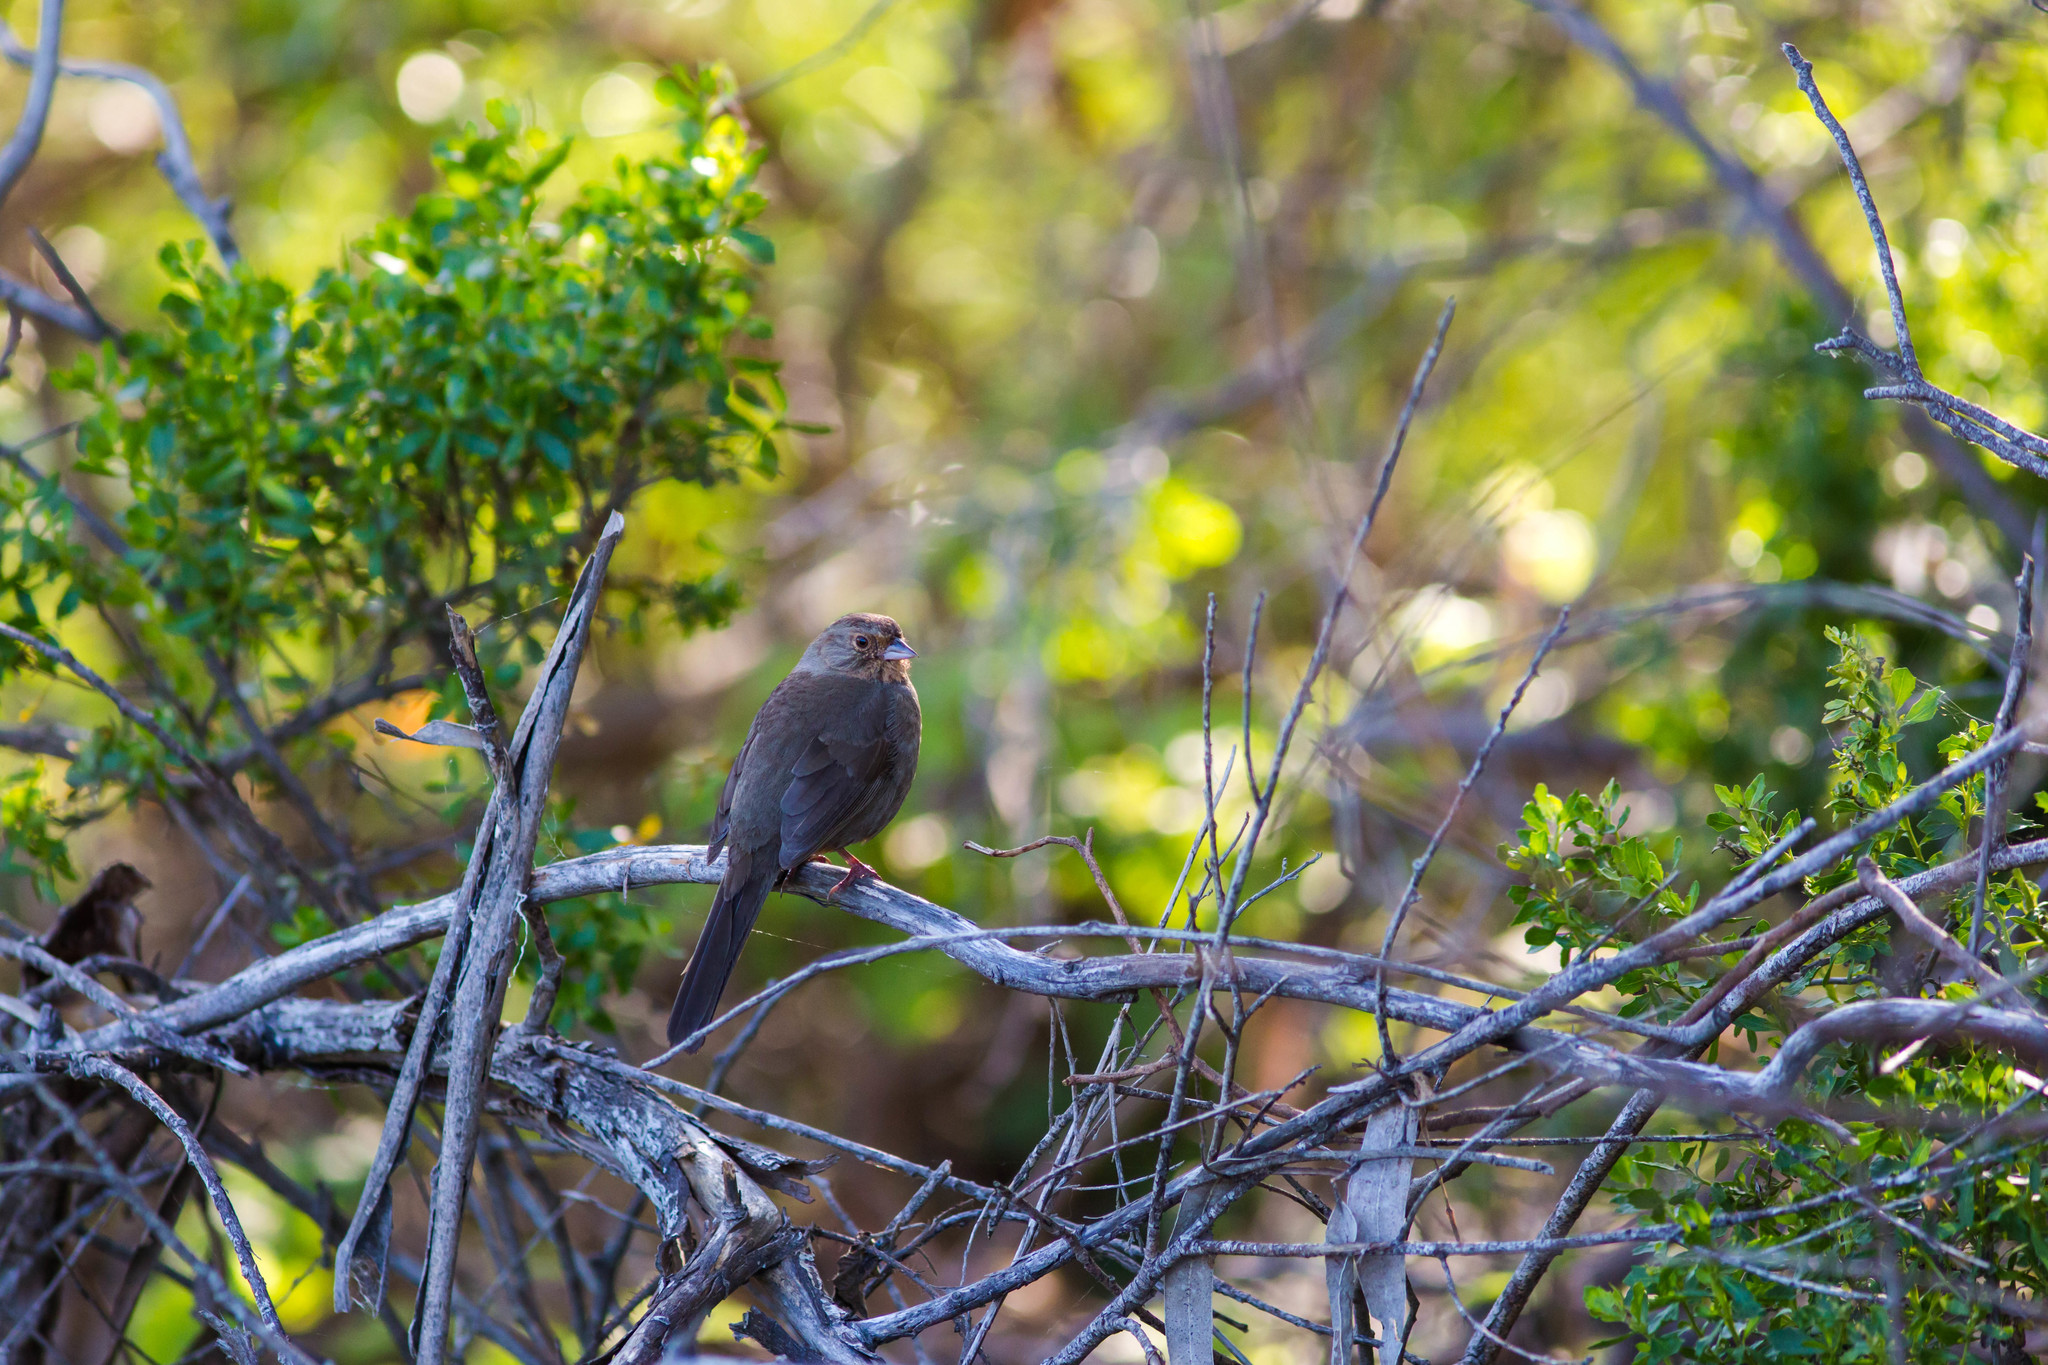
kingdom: Animalia
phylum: Chordata
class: Aves
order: Passeriformes
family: Passerellidae
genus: Melozone
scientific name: Melozone crissalis
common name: California towhee
